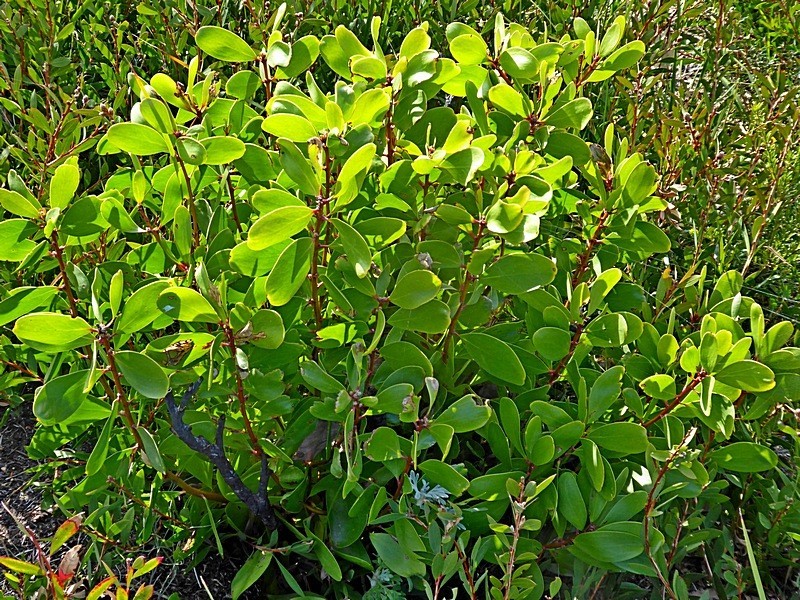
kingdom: Plantae
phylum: Tracheophyta
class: Magnoliopsida
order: Proteales
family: Proteaceae
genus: Persoonia
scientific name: Persoonia levis
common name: Smooth geebung
